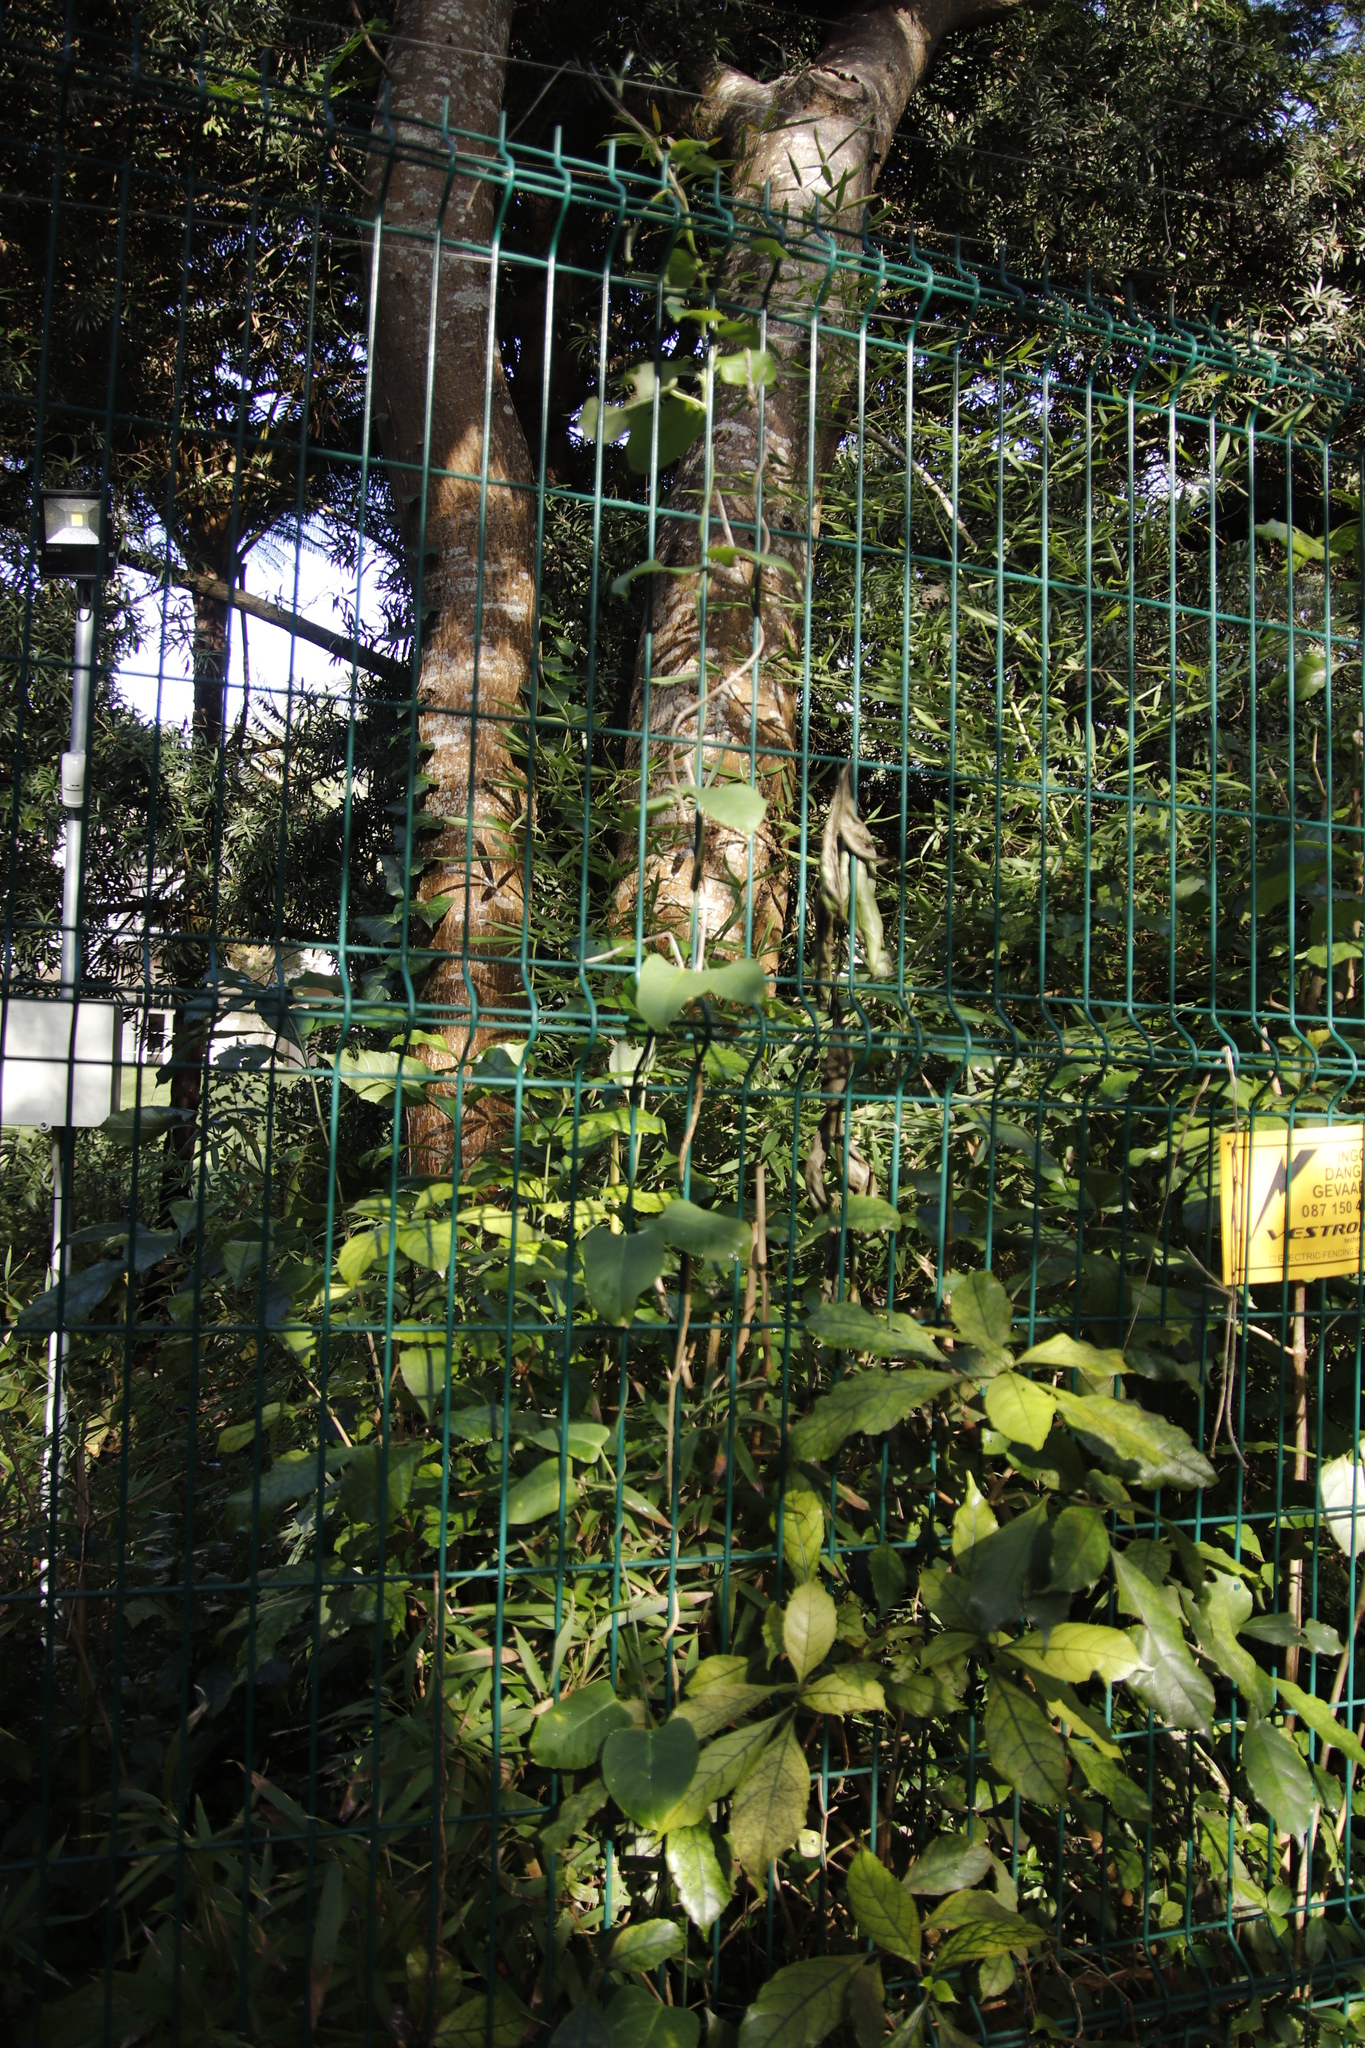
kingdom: Plantae
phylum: Tracheophyta
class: Magnoliopsida
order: Gentianales
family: Apocynaceae
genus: Araujia
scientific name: Araujia sericifera
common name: White bladderflower
